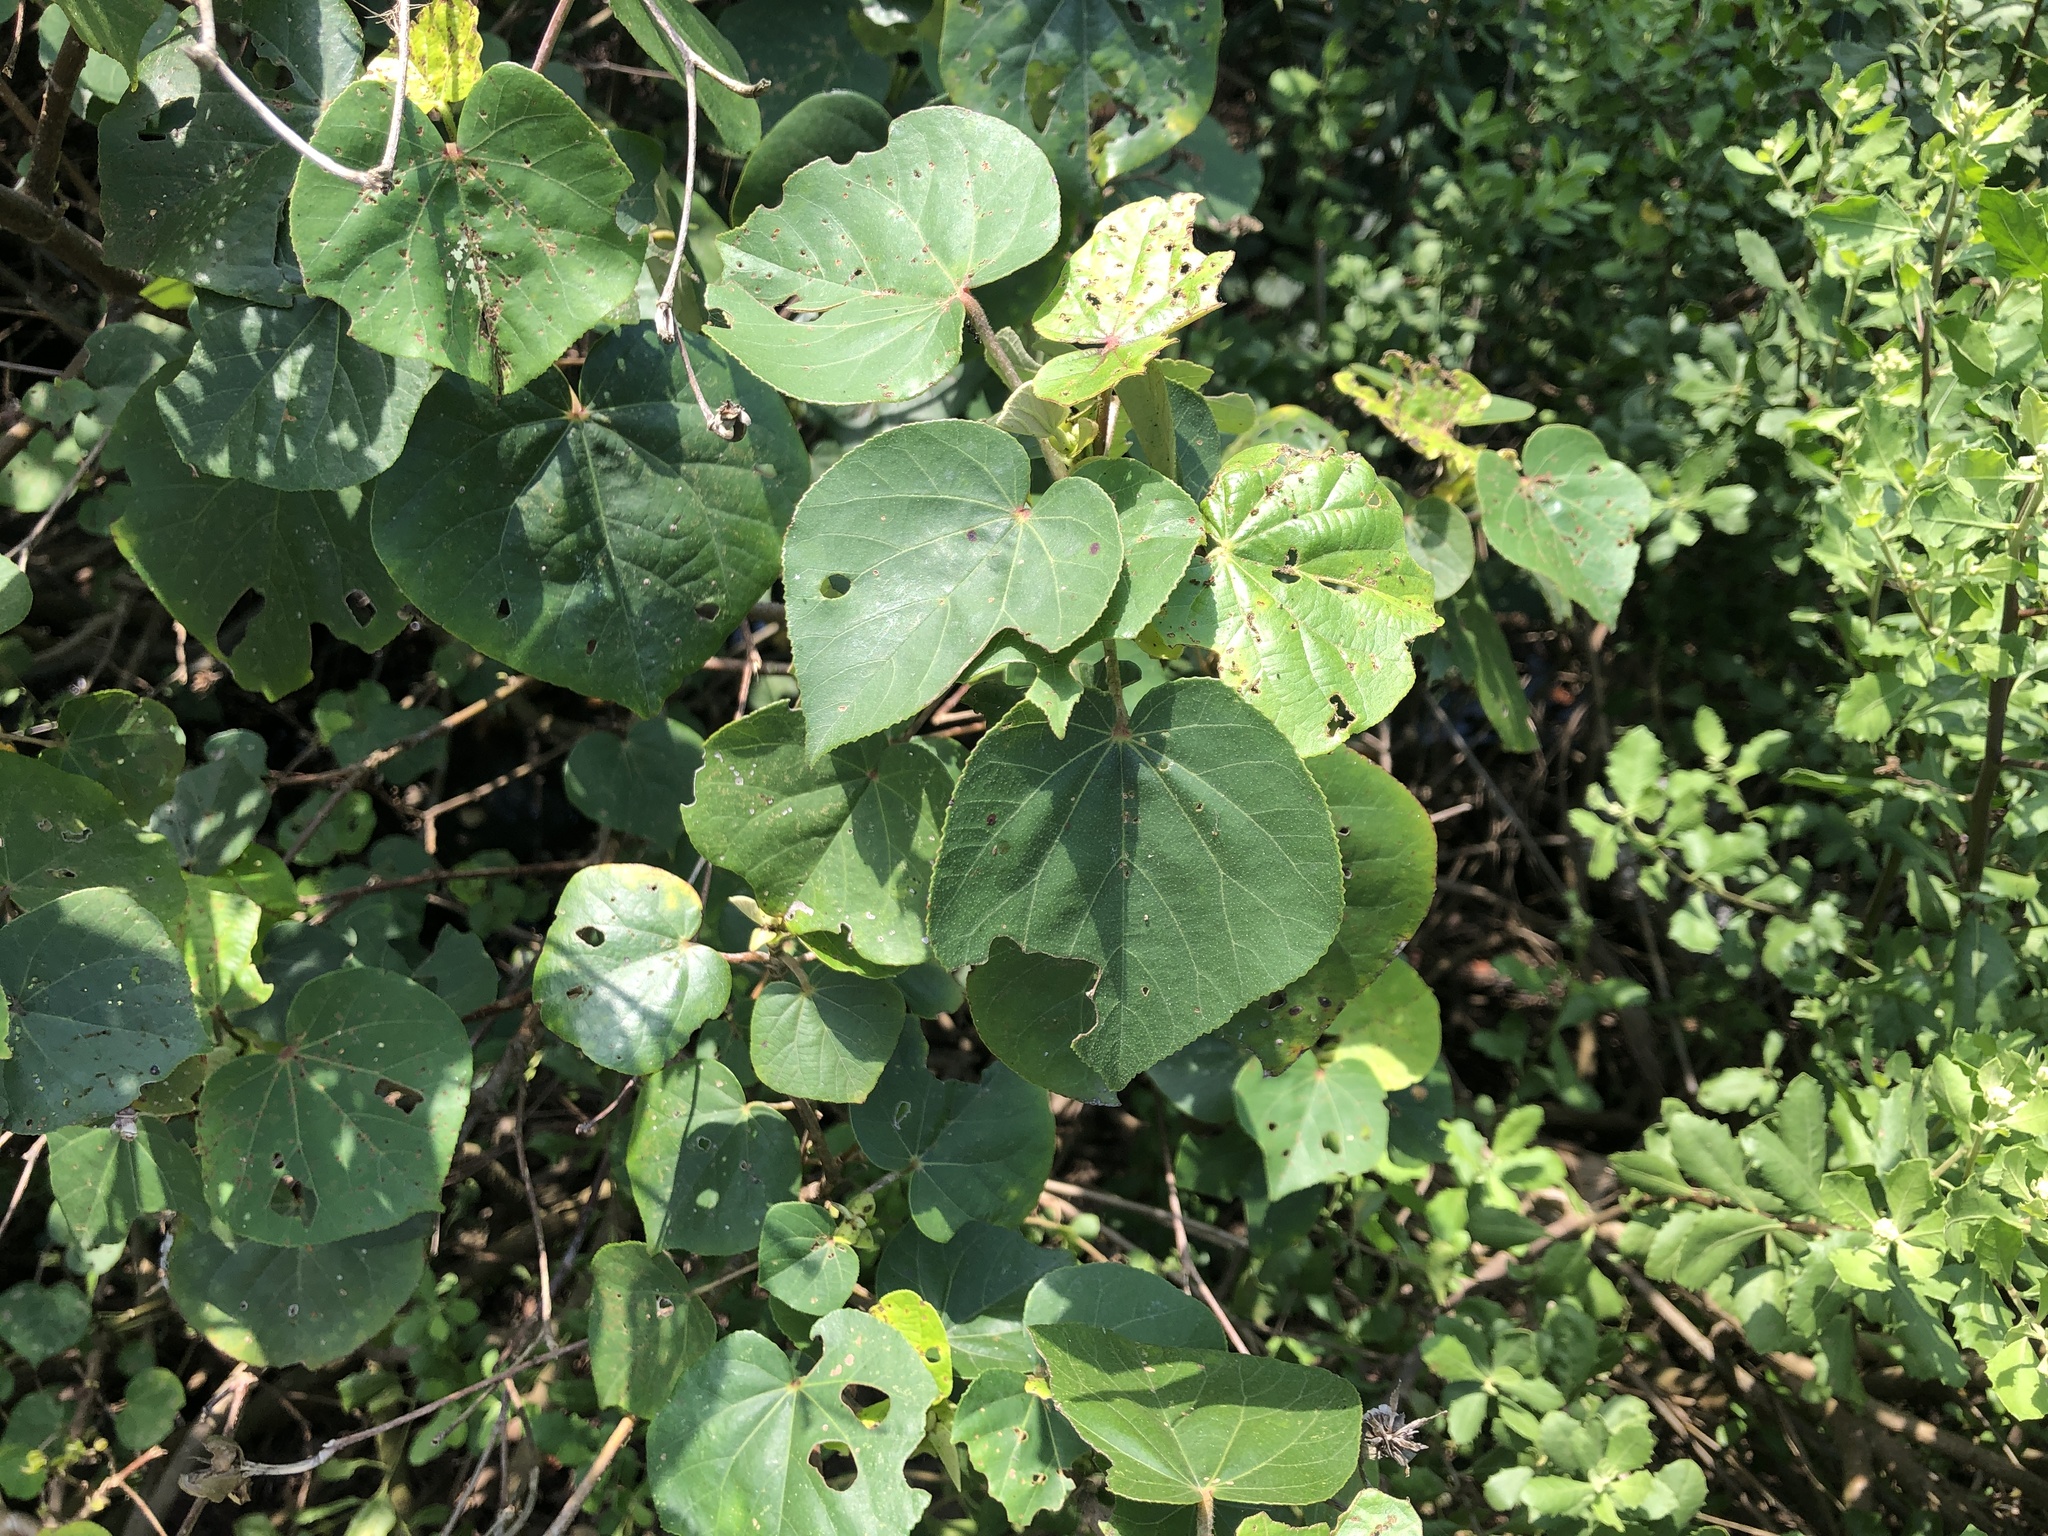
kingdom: Plantae
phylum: Tracheophyta
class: Magnoliopsida
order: Malvales
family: Malvaceae
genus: Talipariti
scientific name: Talipariti tiliaceum
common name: Sea hibiscus
